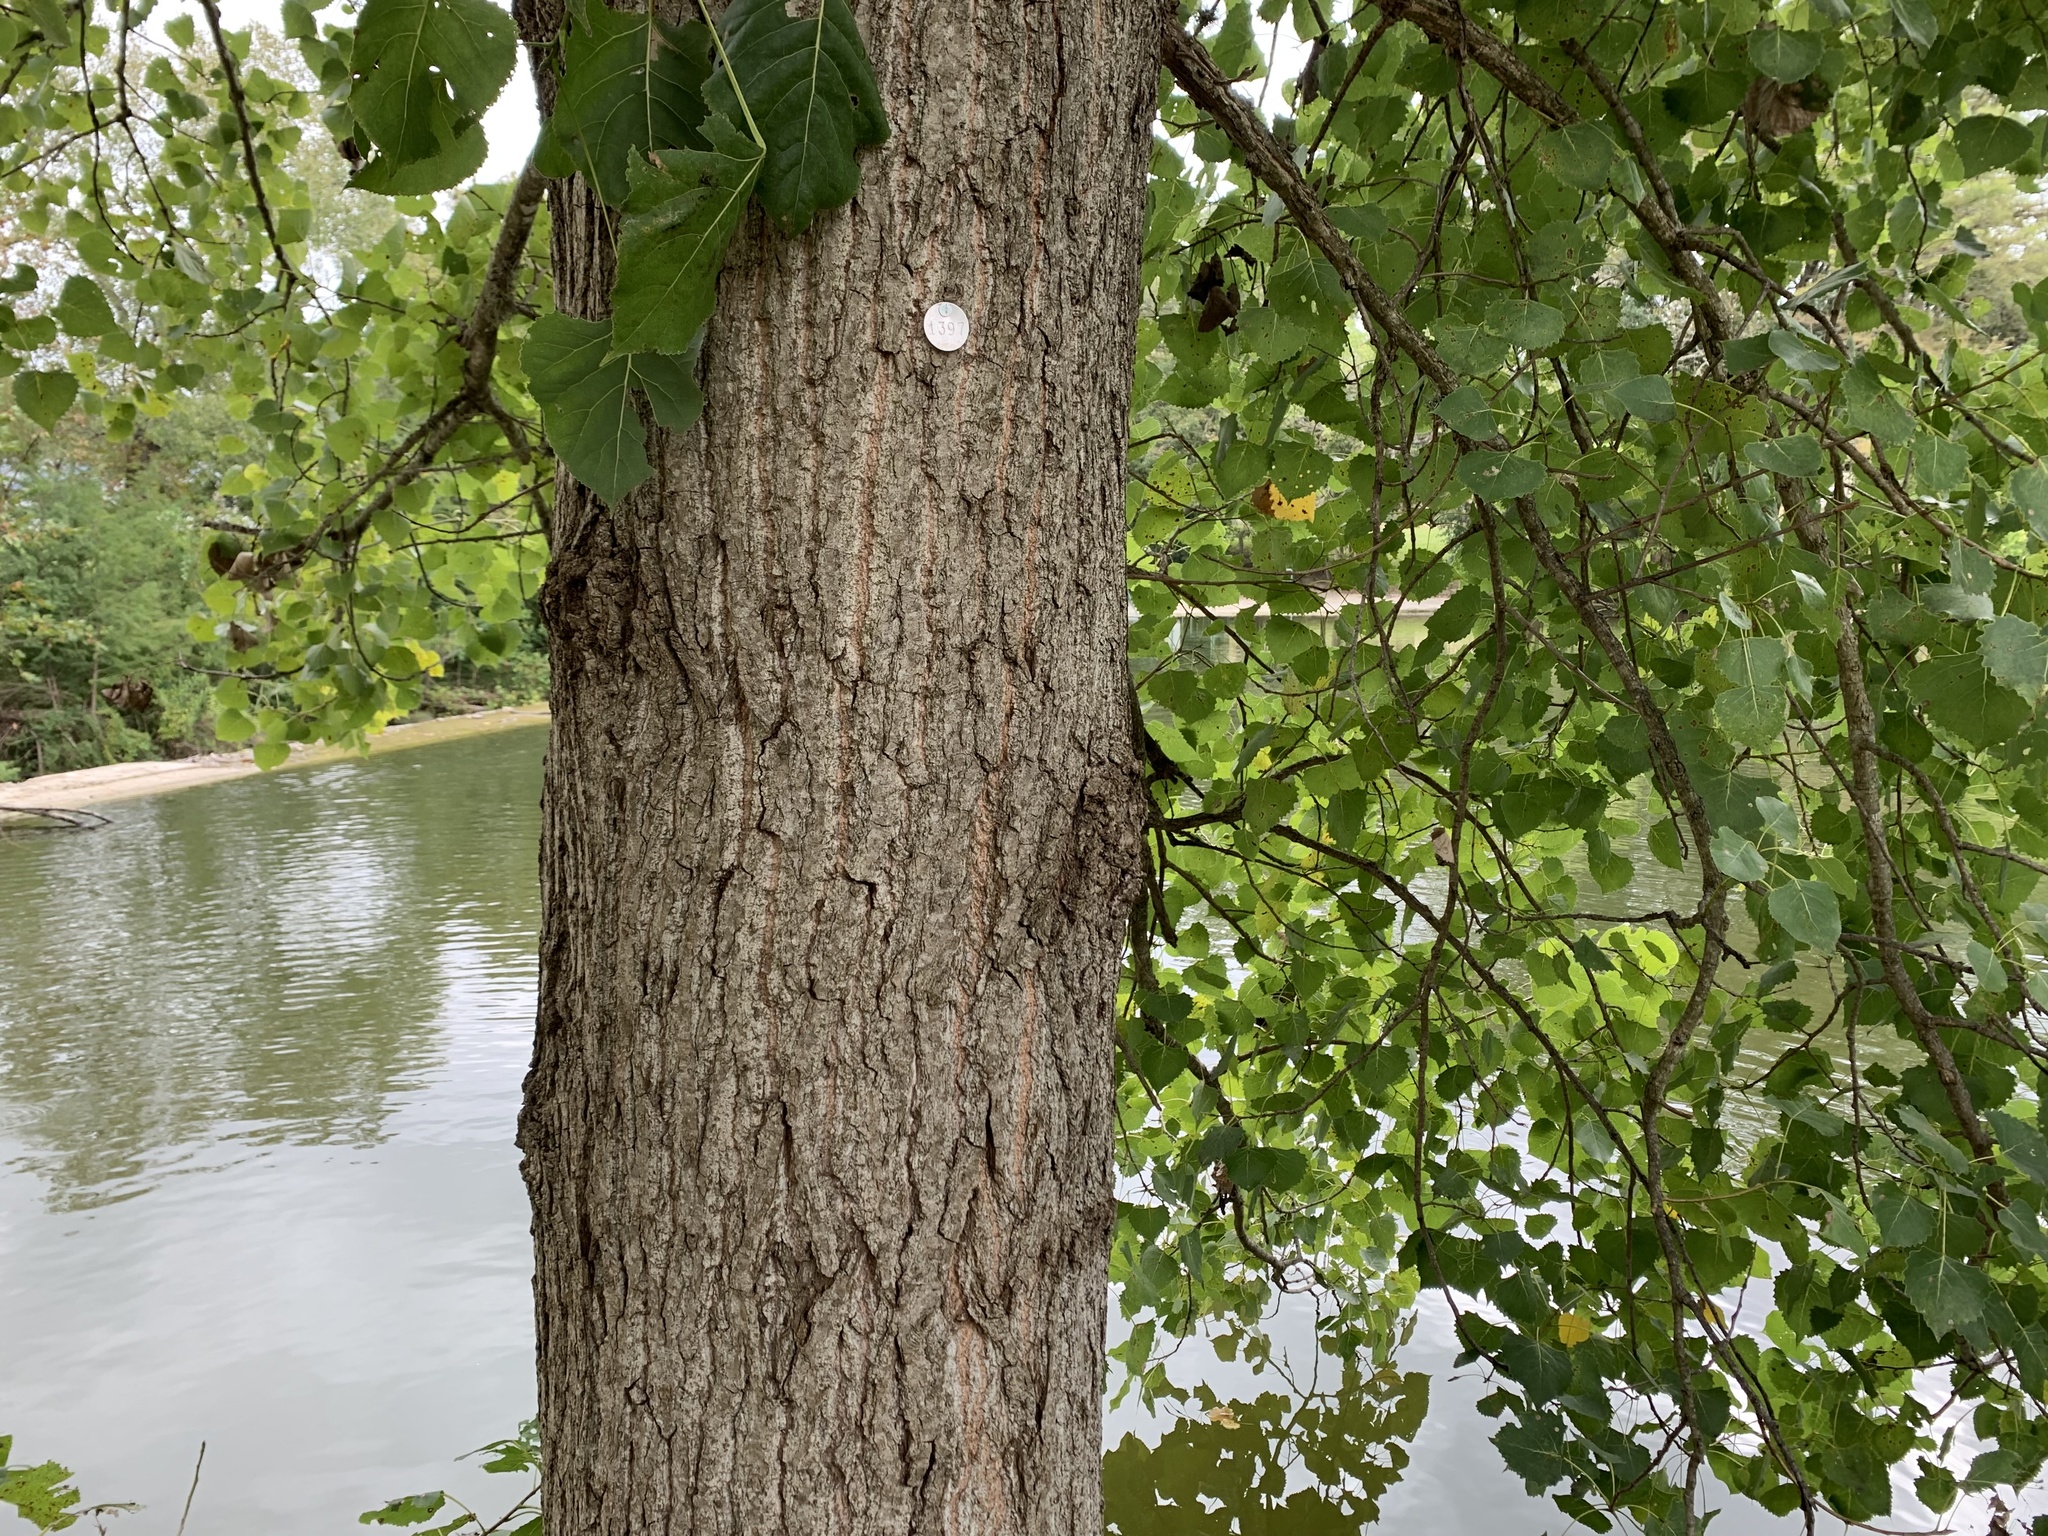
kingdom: Plantae
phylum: Tracheophyta
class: Magnoliopsida
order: Malpighiales
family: Salicaceae
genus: Populus
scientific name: Populus deltoides
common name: Eastern cottonwood
